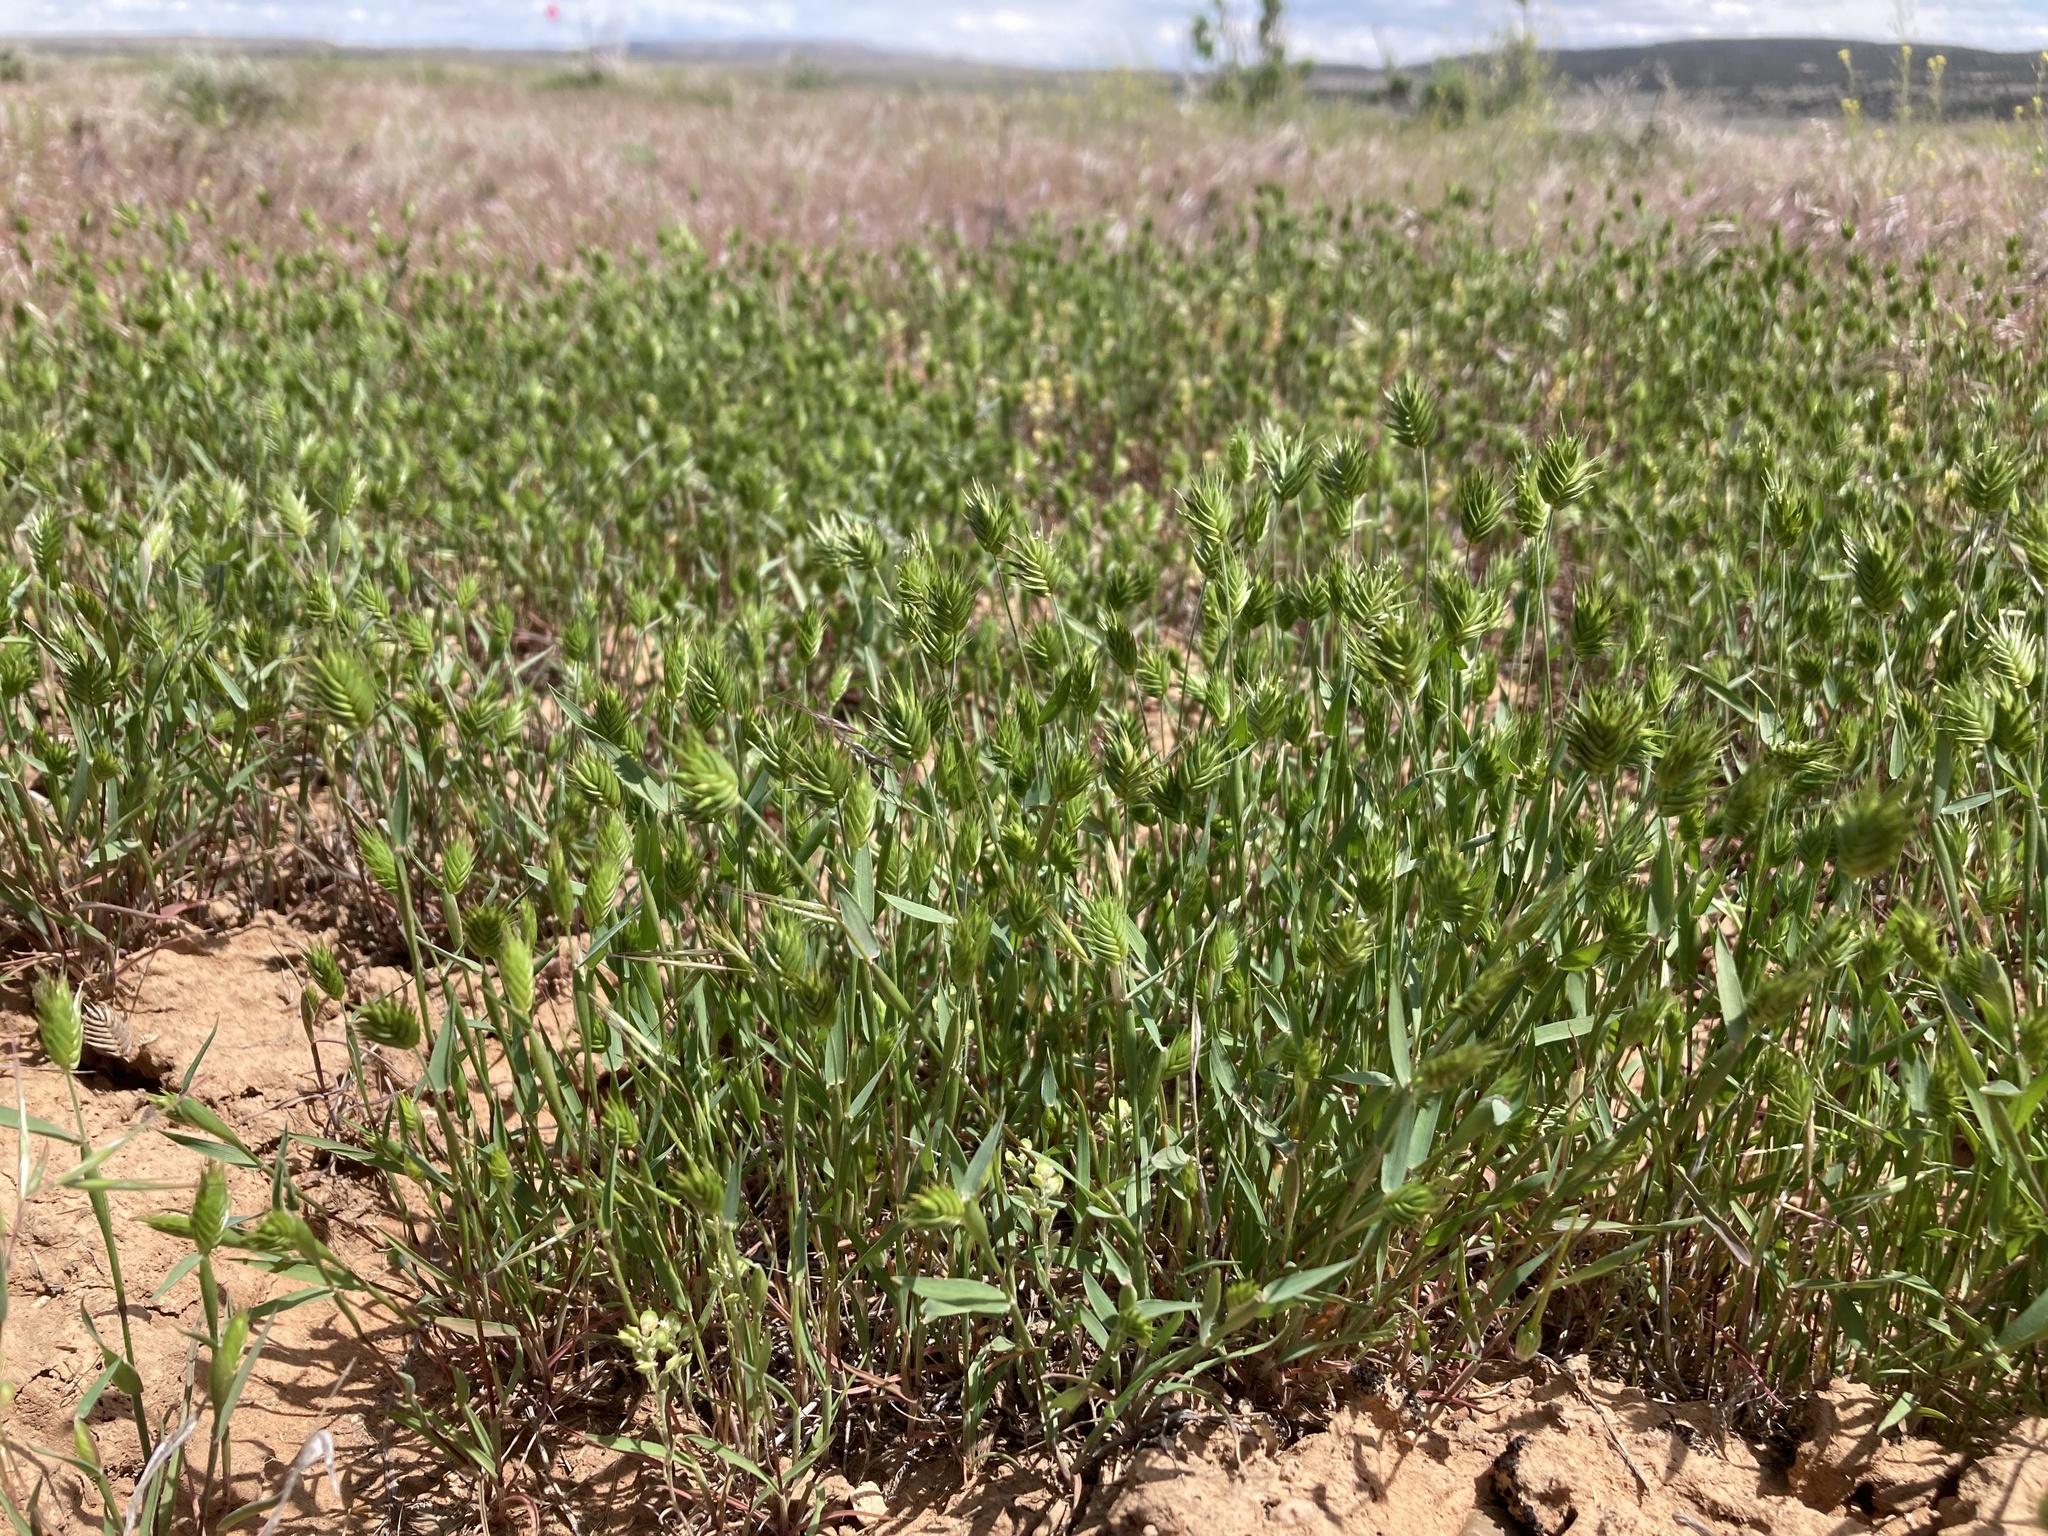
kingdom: Plantae
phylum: Tracheophyta
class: Liliopsida
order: Poales
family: Poaceae
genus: Eremopyrum
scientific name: Eremopyrum triticeum
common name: Annual wheatgrass
